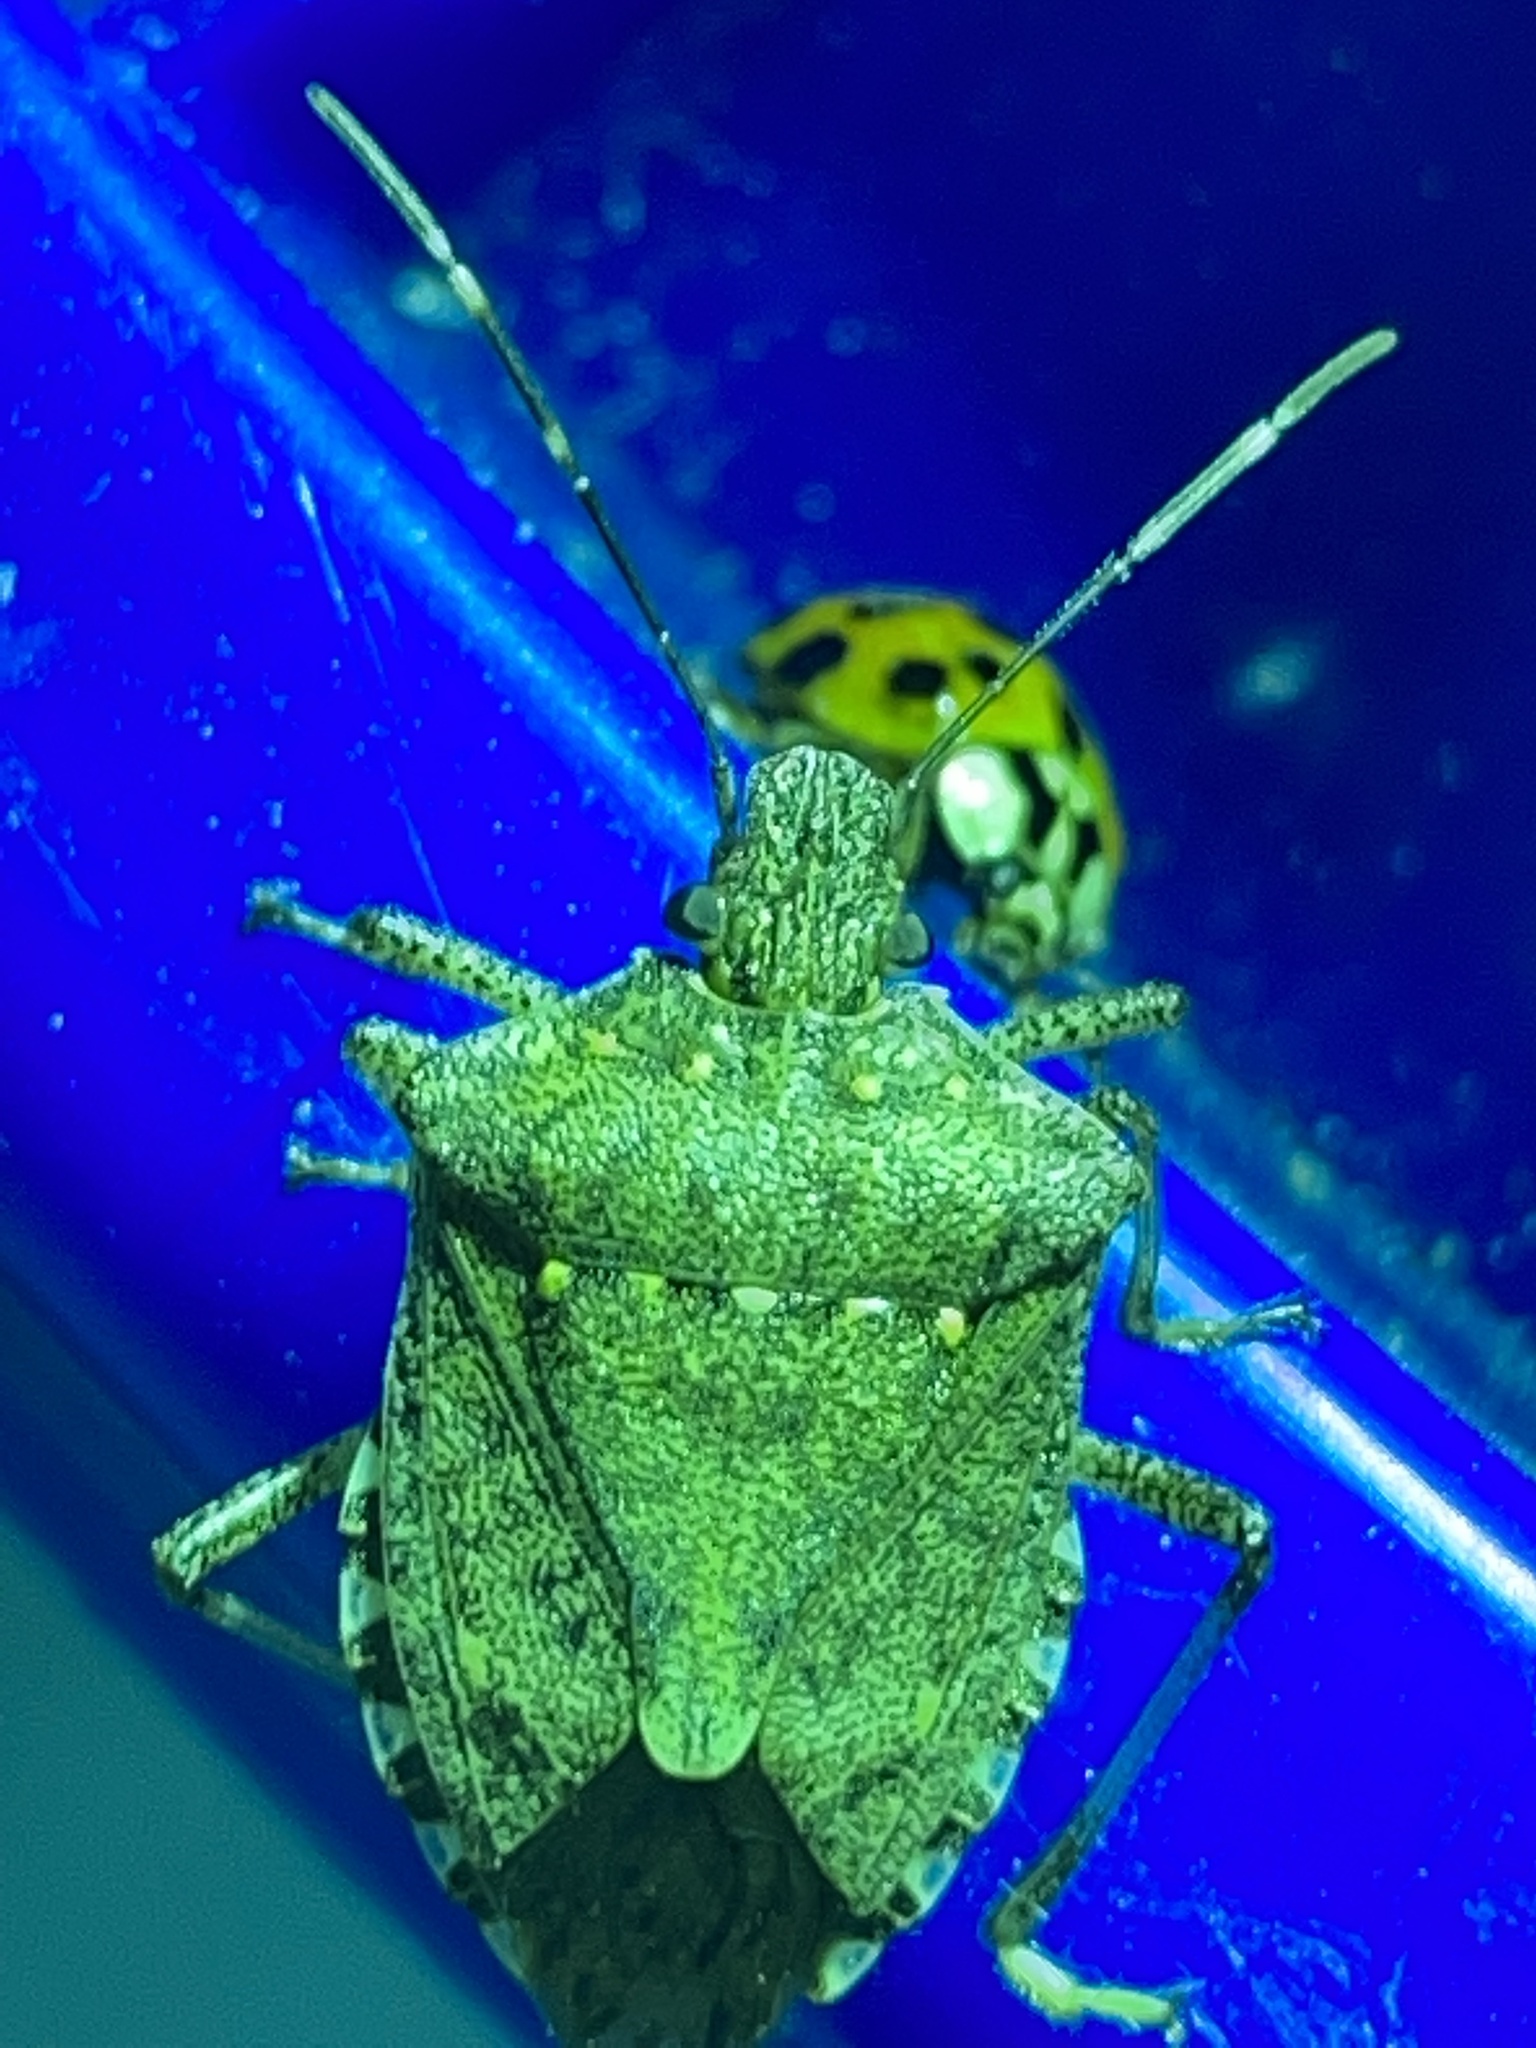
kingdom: Animalia
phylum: Arthropoda
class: Insecta
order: Hemiptera
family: Pentatomidae
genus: Halyomorpha
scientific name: Halyomorpha halys
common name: Brown marmorated stink bug
